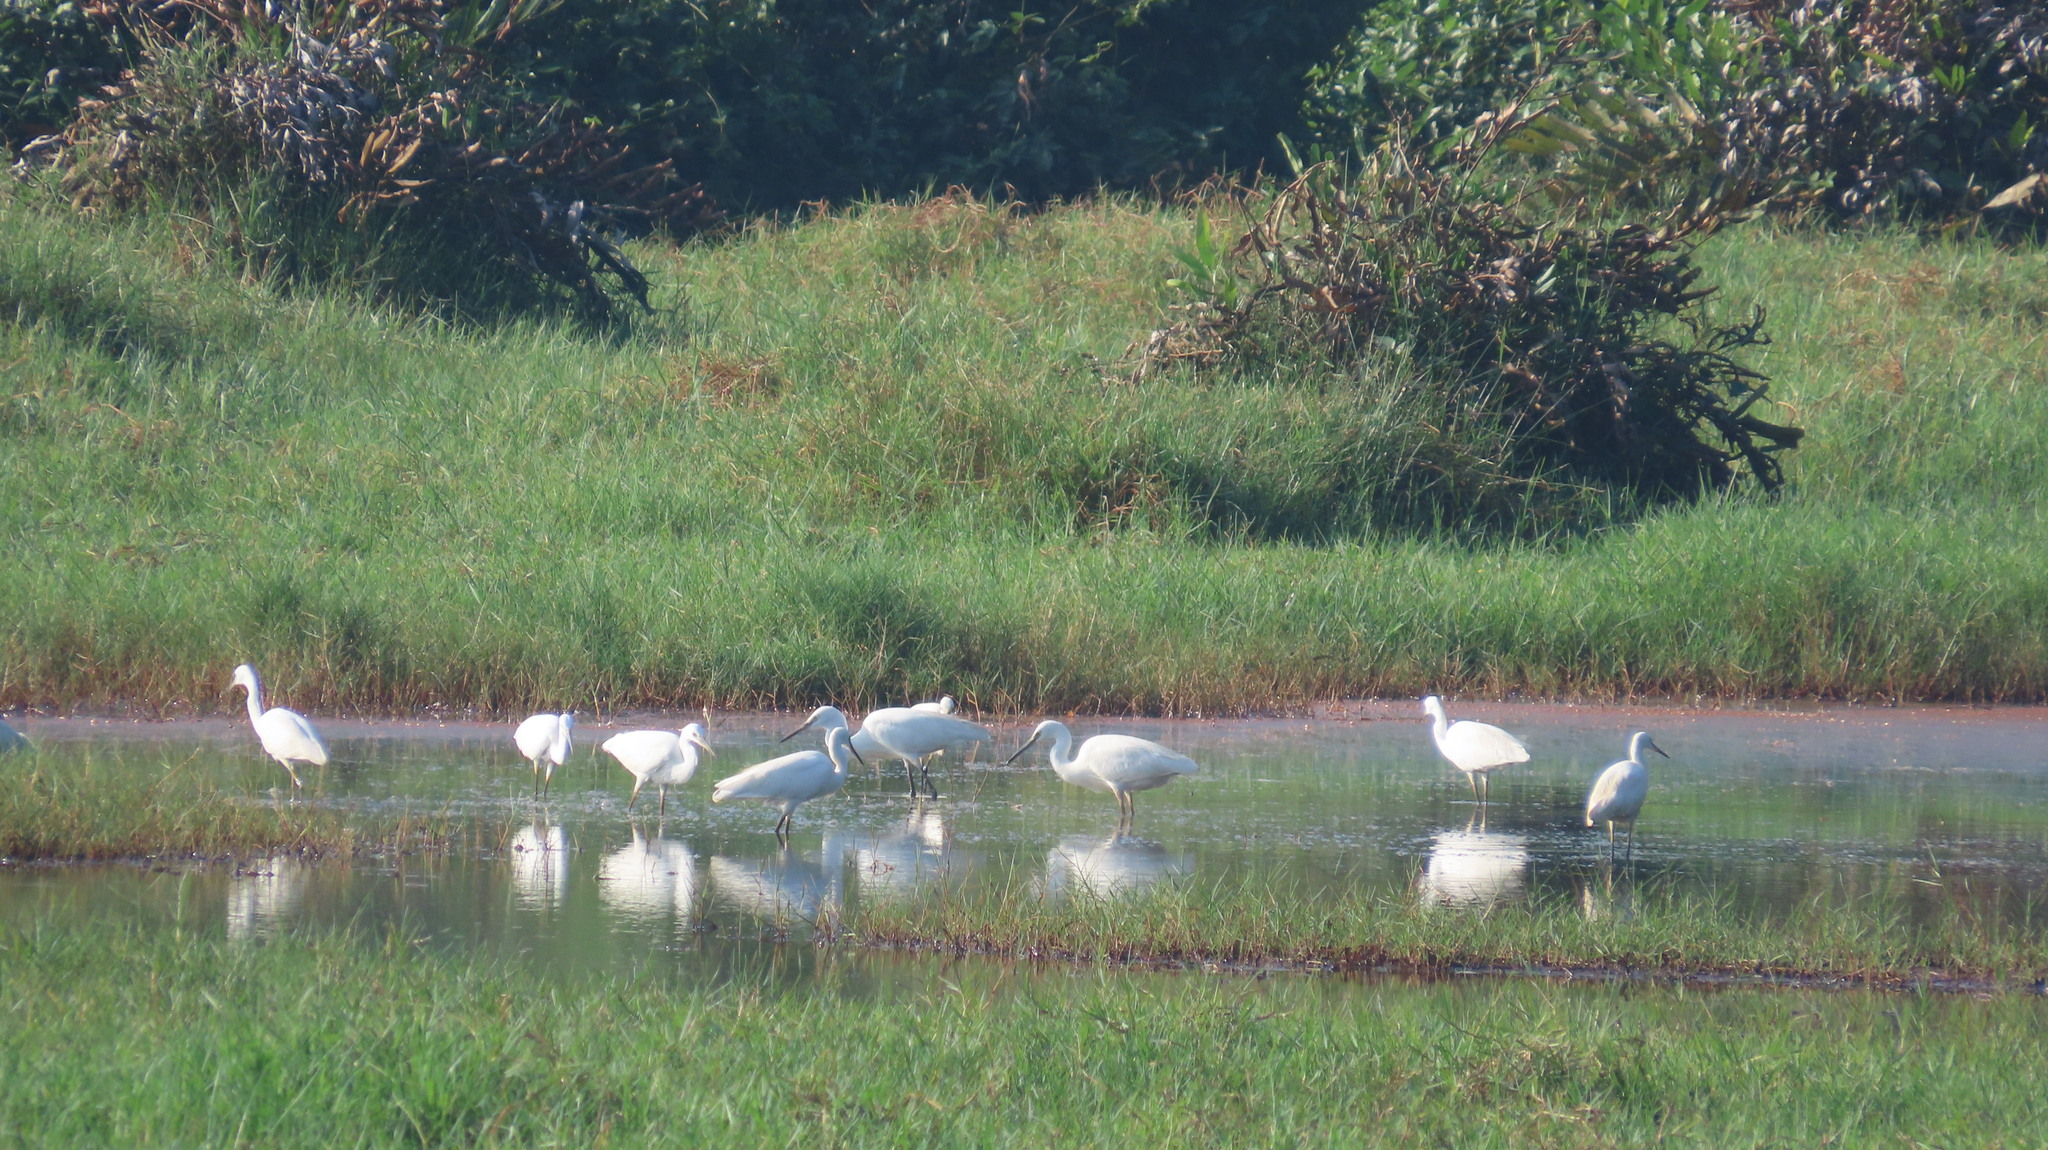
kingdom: Animalia
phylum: Chordata
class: Aves
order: Pelecaniformes
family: Ardeidae
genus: Egretta
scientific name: Egretta garzetta
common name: Little egret
